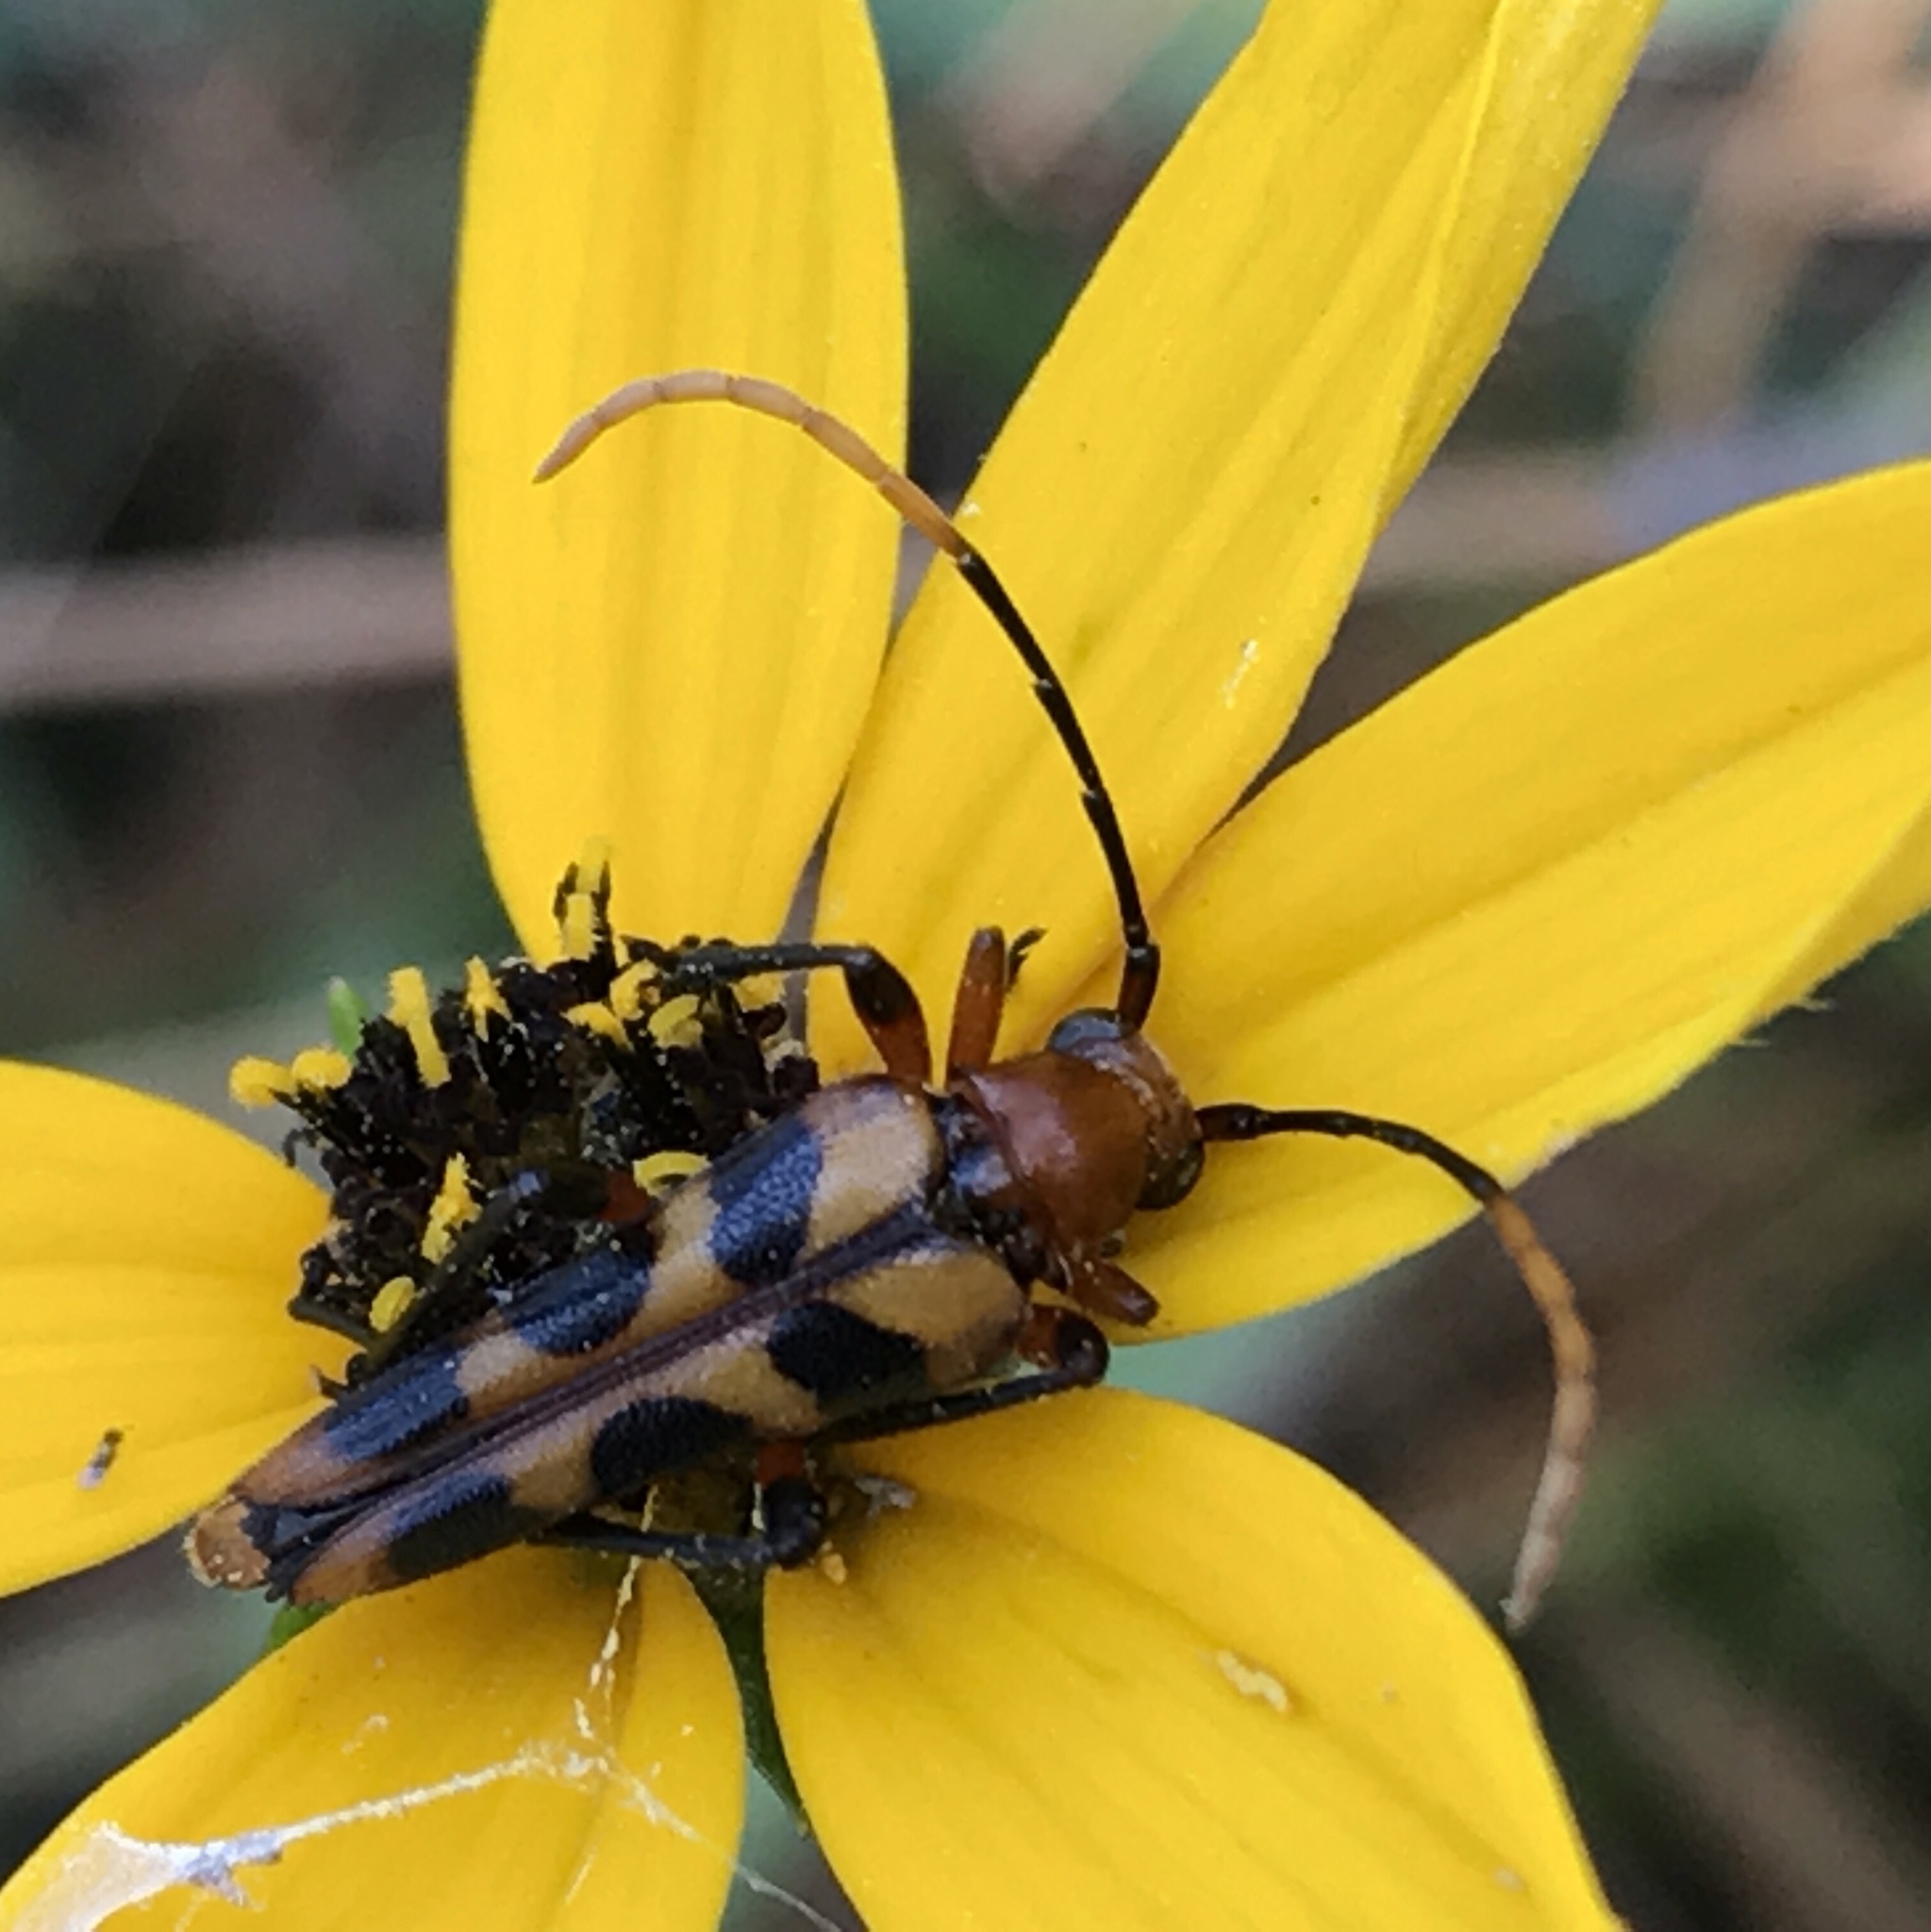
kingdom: Animalia
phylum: Arthropoda
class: Insecta
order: Coleoptera
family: Cerambycidae
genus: Strangalia
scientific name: Strangalia sexnotata
